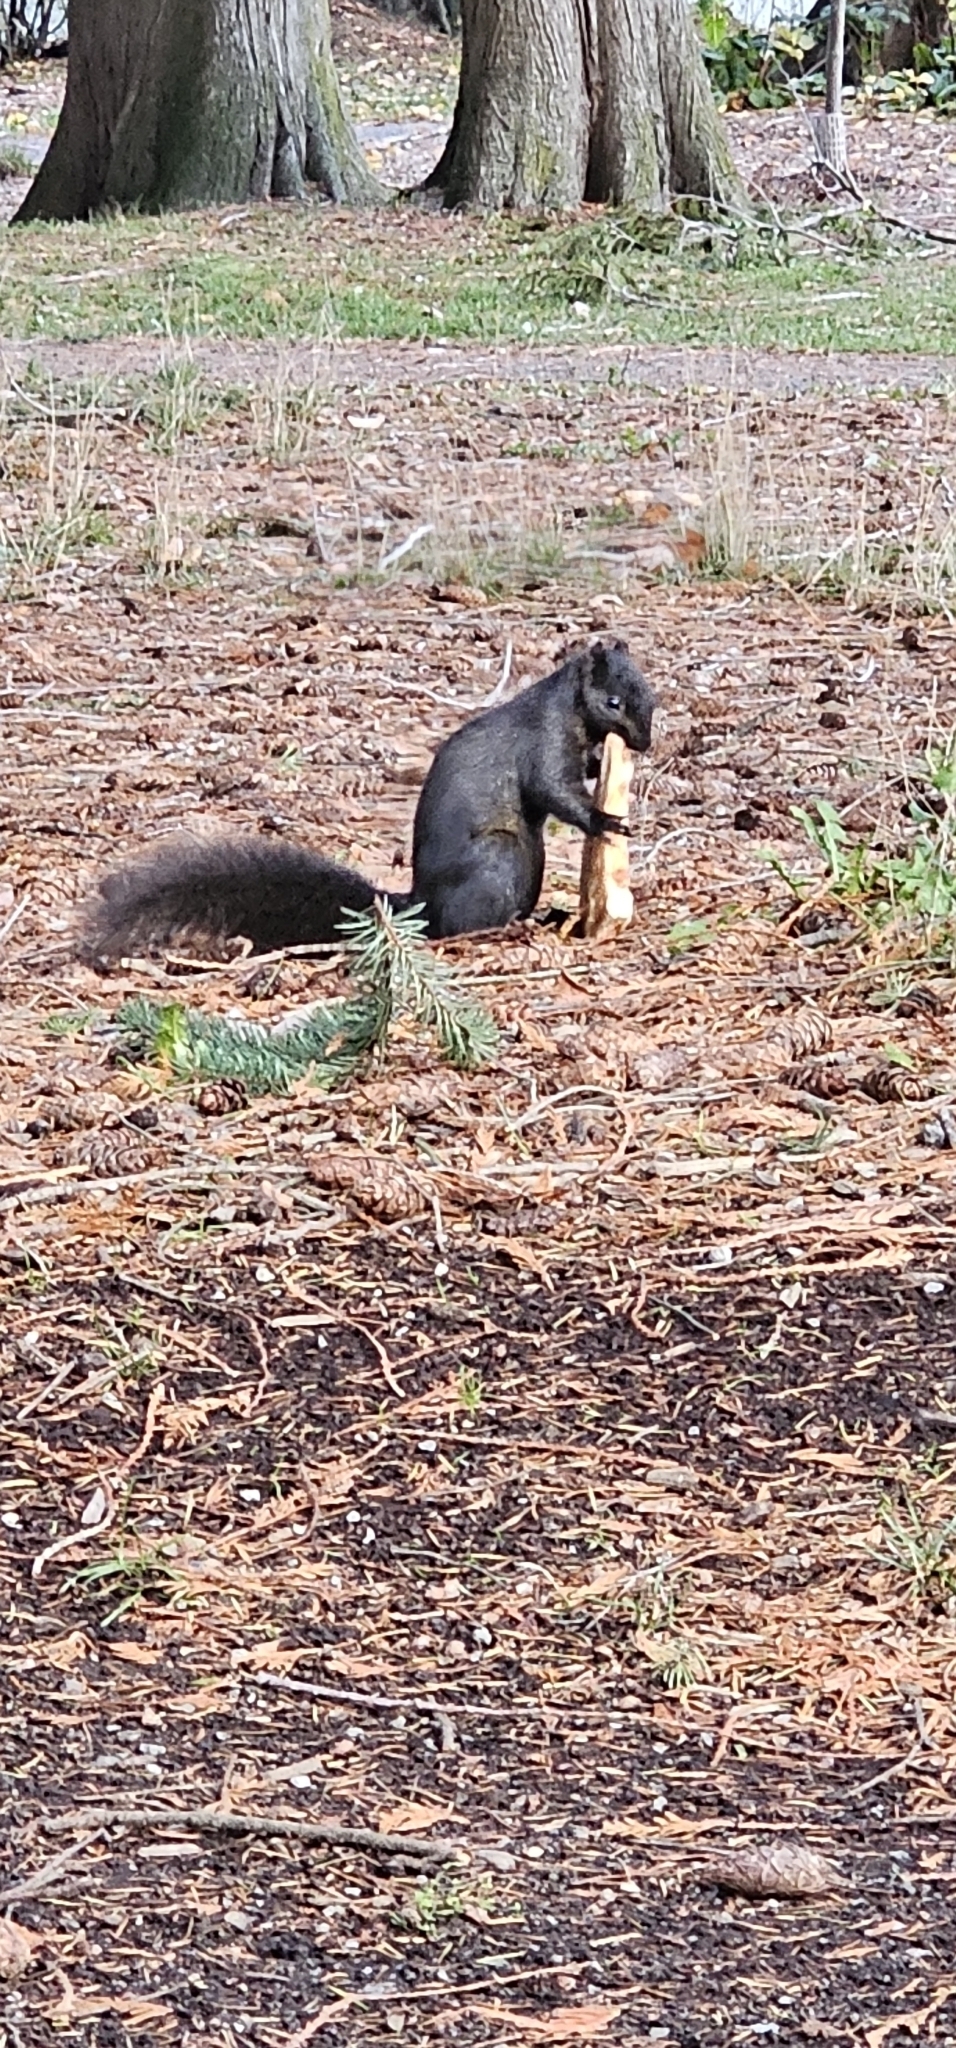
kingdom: Animalia
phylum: Chordata
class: Mammalia
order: Rodentia
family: Sciuridae
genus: Sciurus
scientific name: Sciurus carolinensis
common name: Eastern gray squirrel
